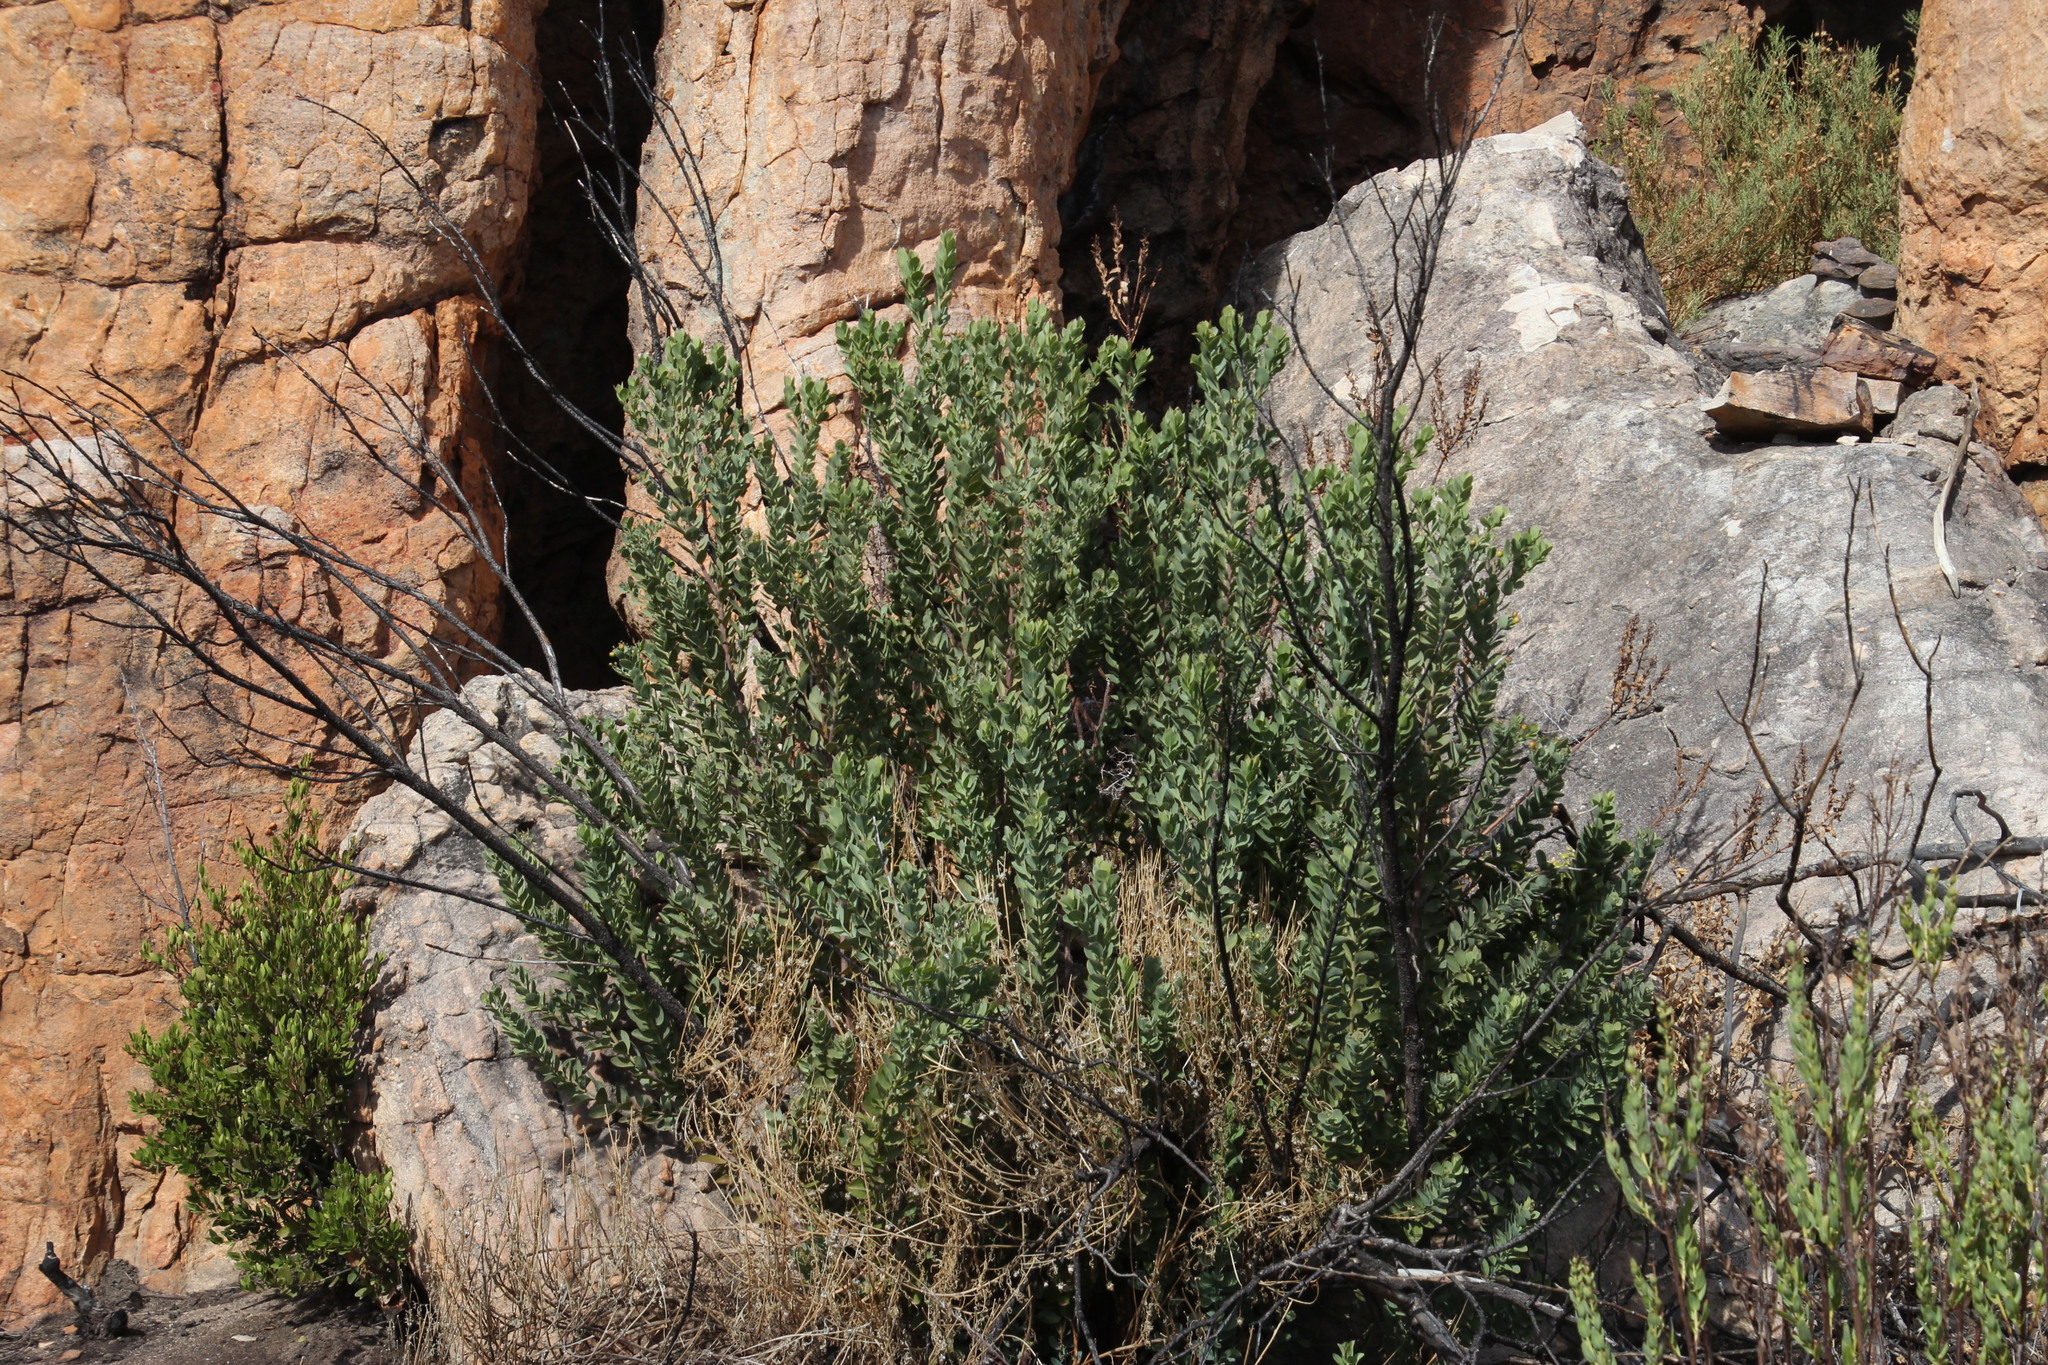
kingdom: Plantae
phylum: Tracheophyta
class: Magnoliopsida
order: Santalales
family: Santalaceae
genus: Osyris
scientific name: Osyris compressa
